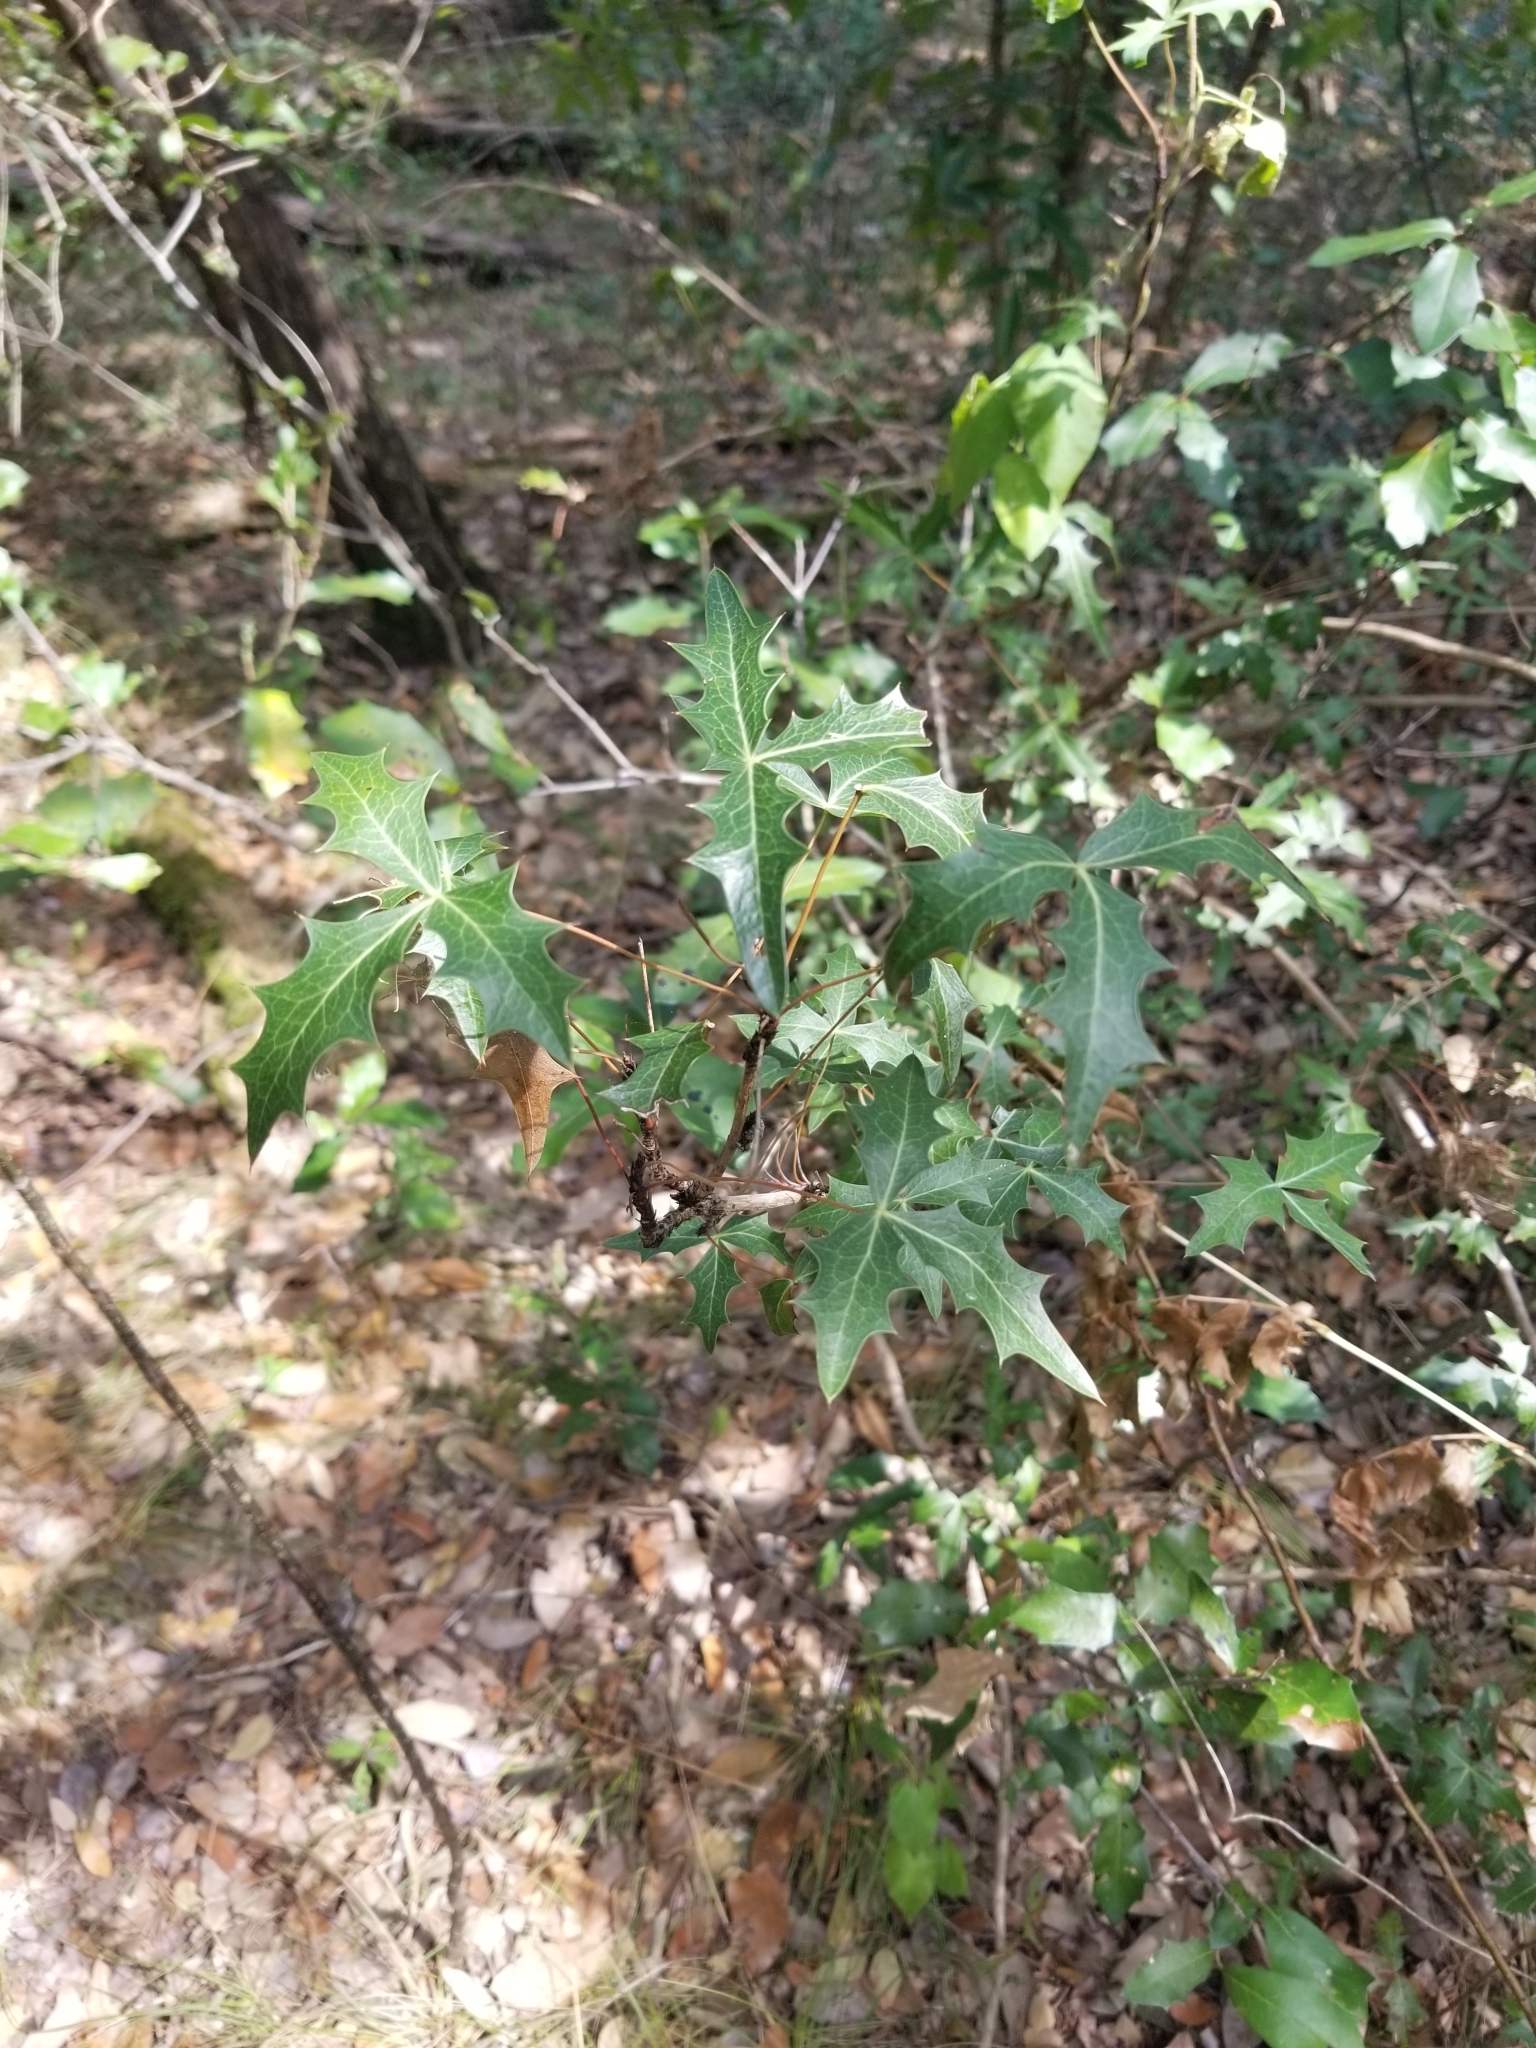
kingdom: Plantae
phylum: Tracheophyta
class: Magnoliopsida
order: Ranunculales
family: Berberidaceae
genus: Alloberberis
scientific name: Alloberberis trifoliolata
